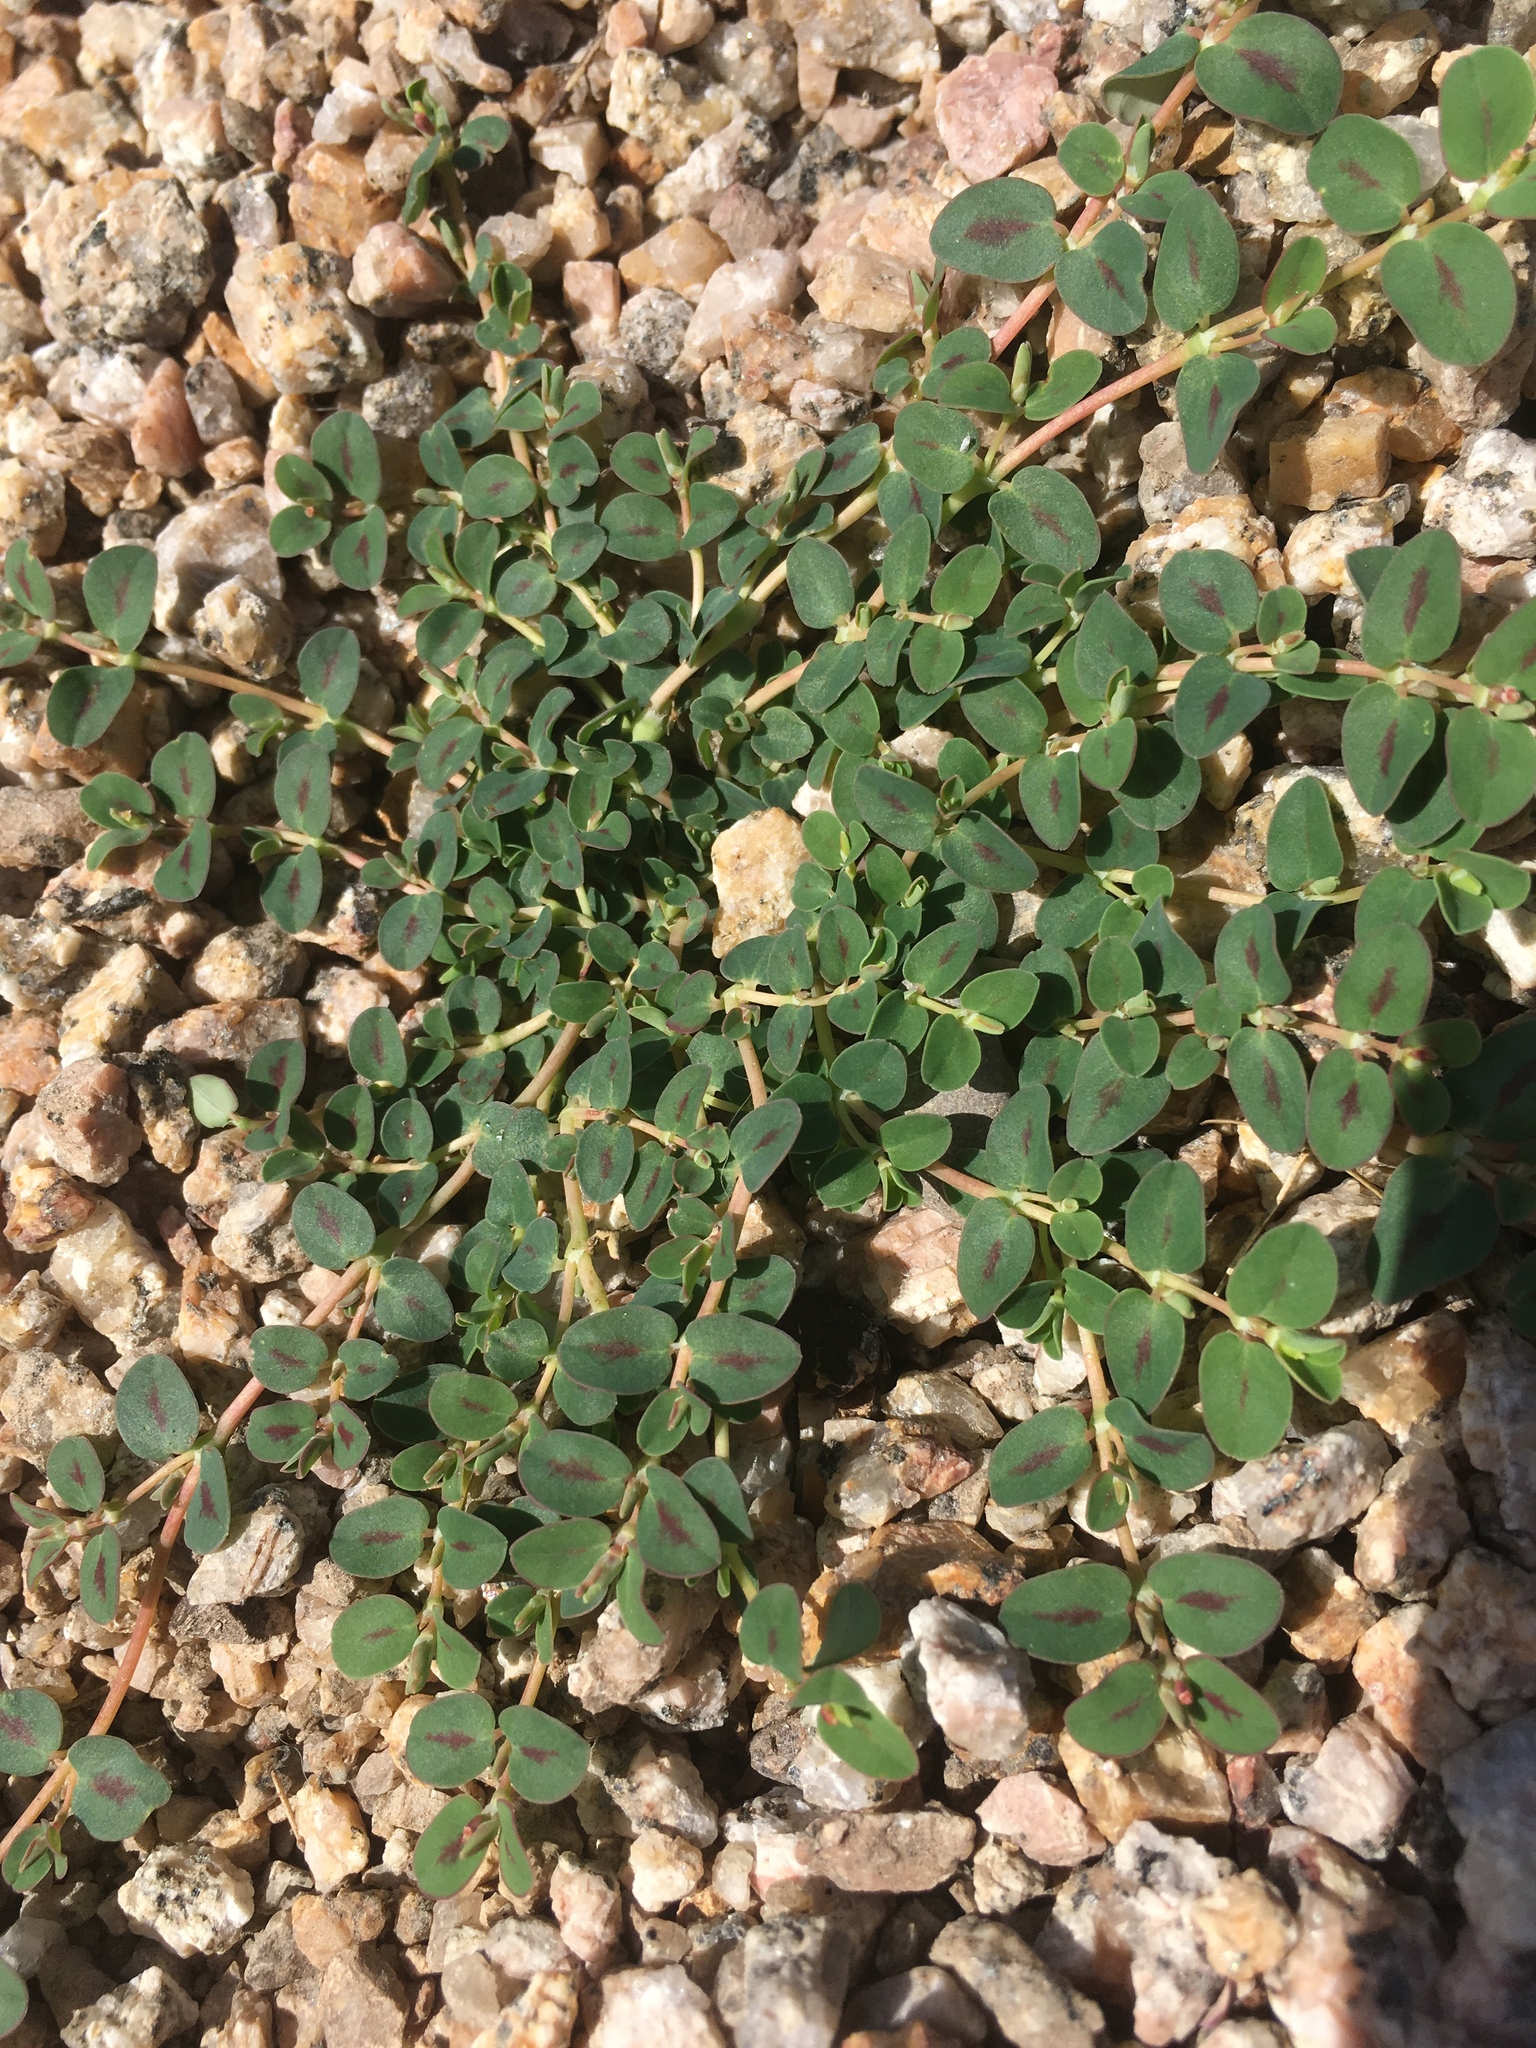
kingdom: Plantae
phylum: Tracheophyta
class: Magnoliopsida
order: Malpighiales
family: Euphorbiaceae
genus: Euphorbia
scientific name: Euphorbia albomarginata
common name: Whitemargin sandmat
